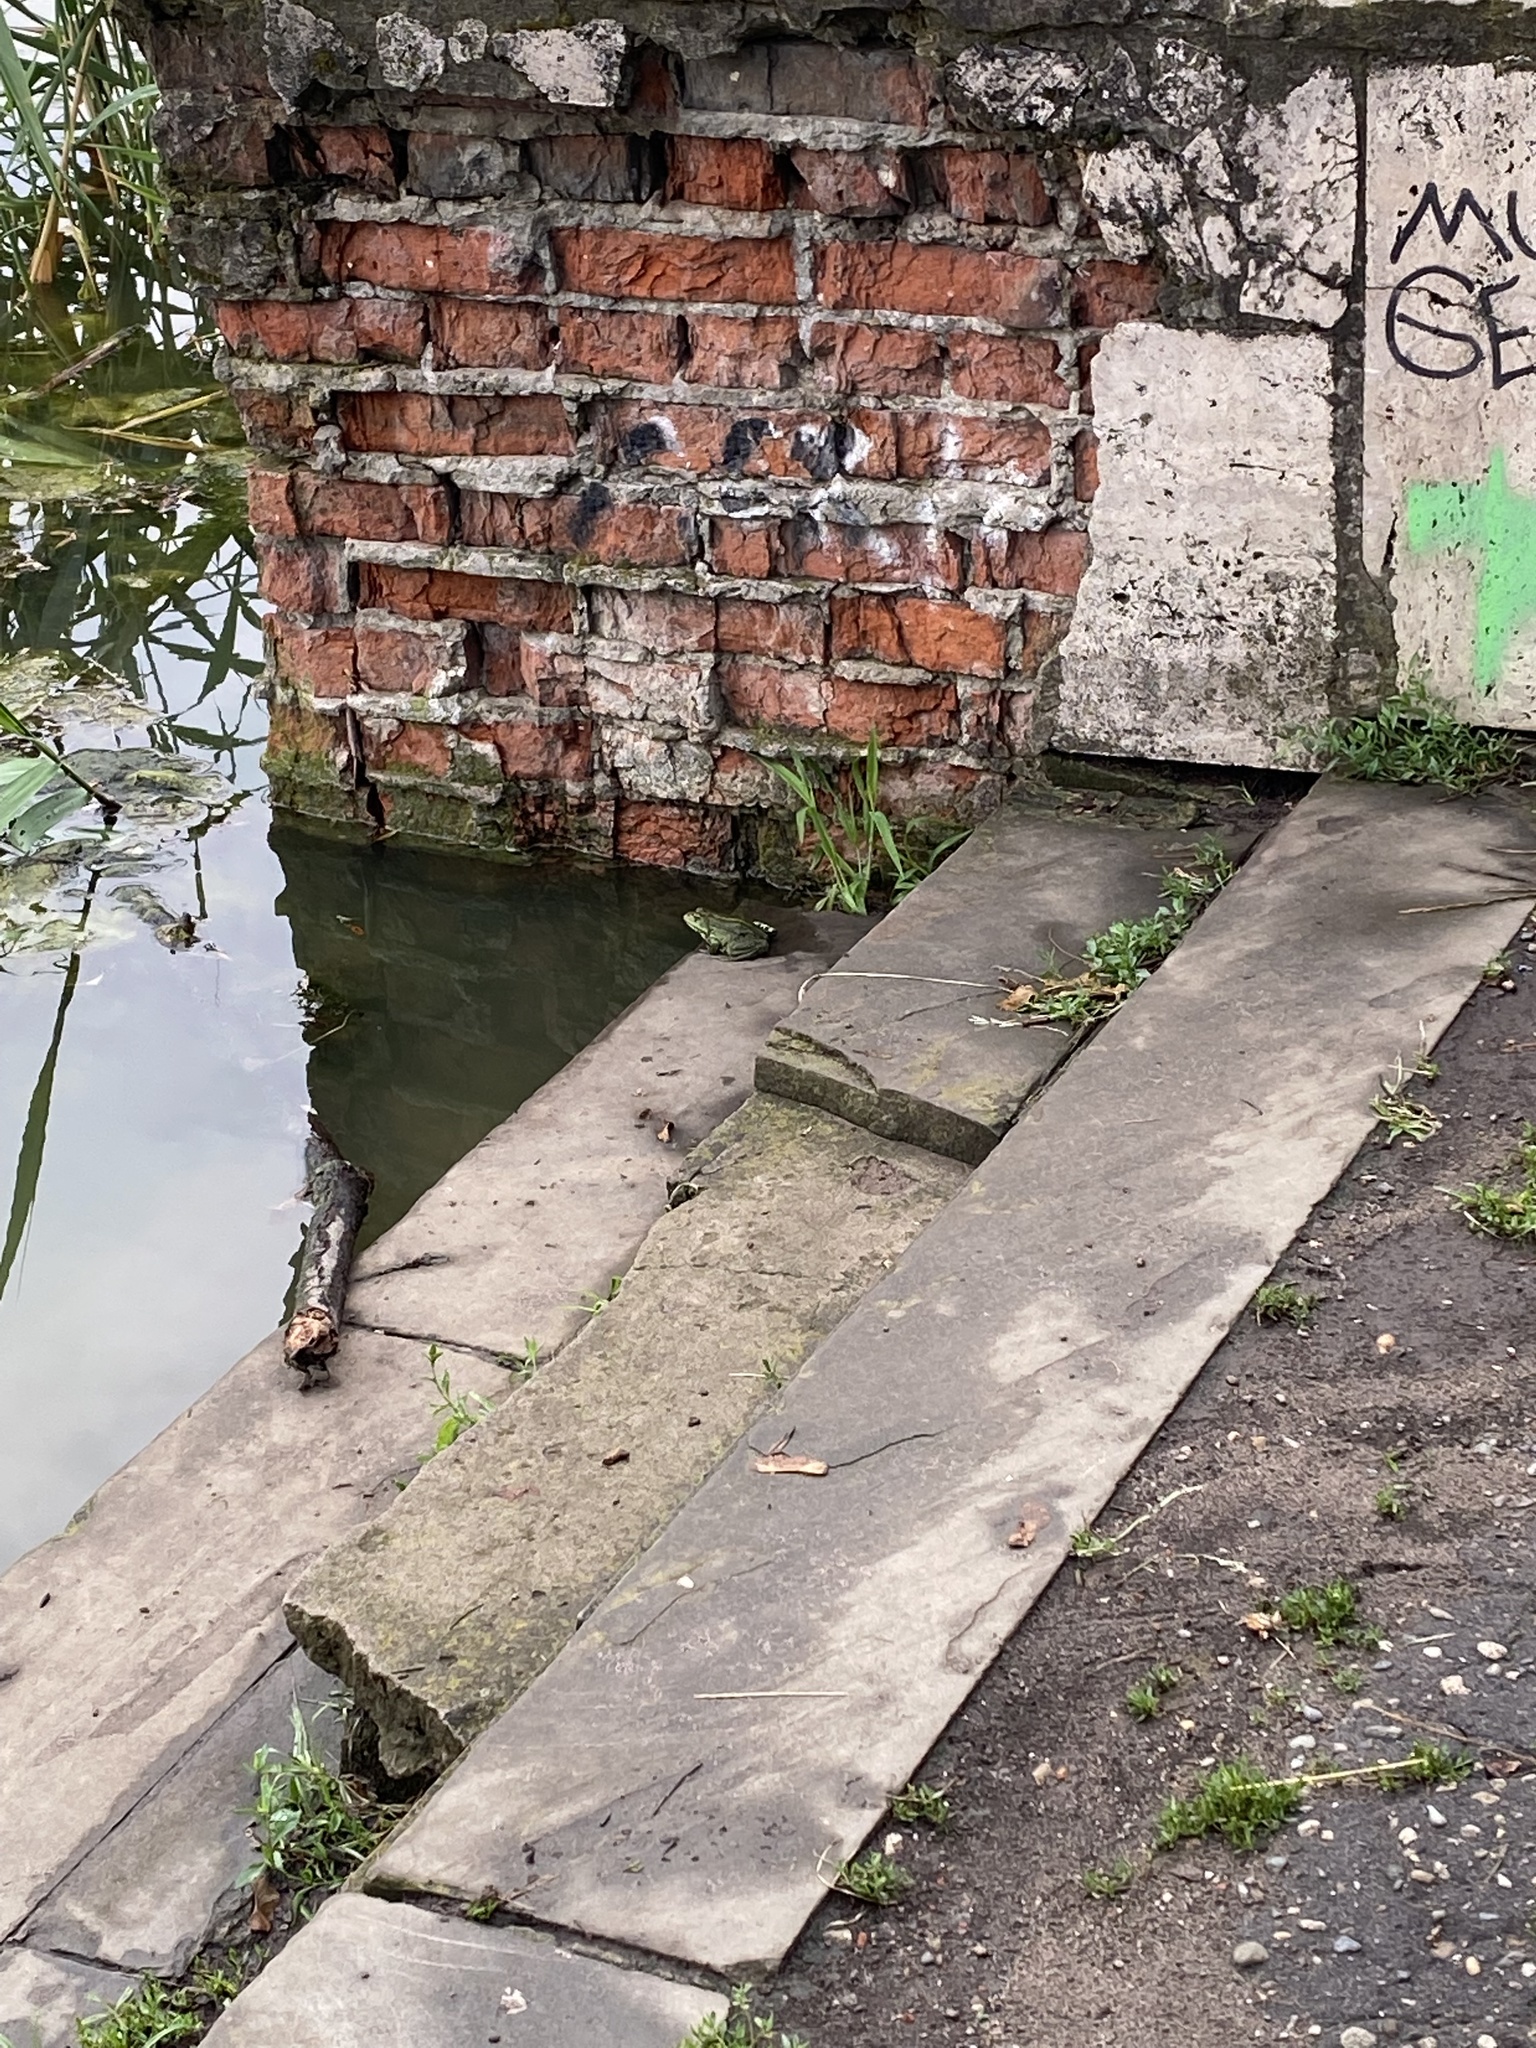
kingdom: Animalia
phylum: Chordata
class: Amphibia
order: Anura
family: Ranidae
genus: Pelophylax
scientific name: Pelophylax ridibundus
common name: Marsh frog
